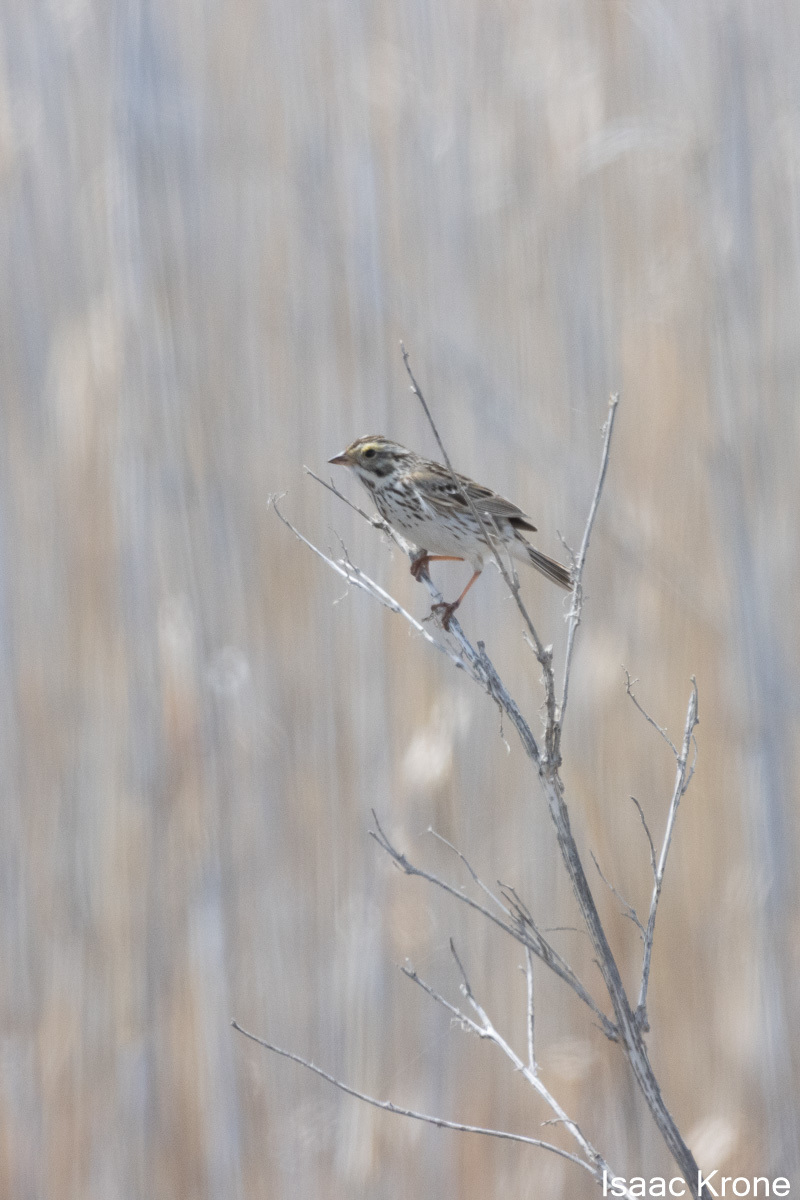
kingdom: Animalia
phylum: Chordata
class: Aves
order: Passeriformes
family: Passerellidae
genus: Passerculus
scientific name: Passerculus sandwichensis
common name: Savannah sparrow
